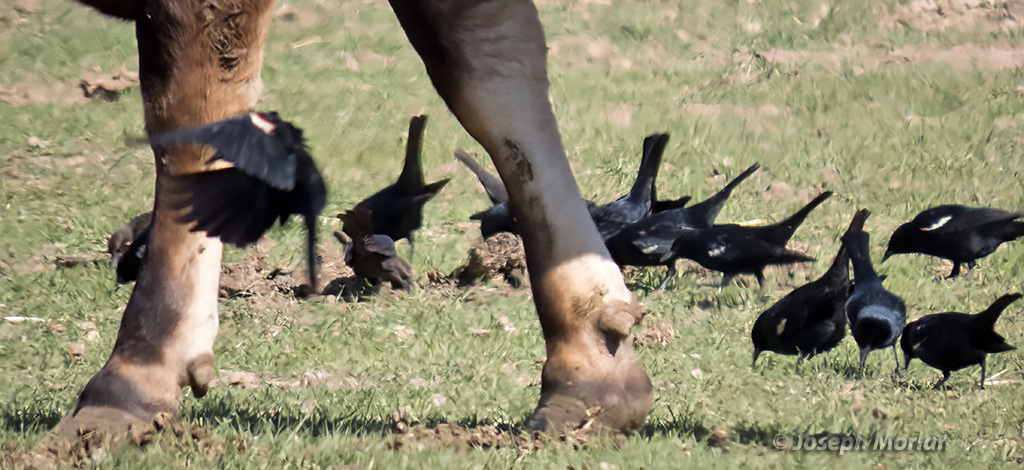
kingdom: Animalia
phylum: Chordata
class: Aves
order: Passeriformes
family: Icteridae
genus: Agelaius
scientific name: Agelaius tricolor
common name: Tricolored blackbird
